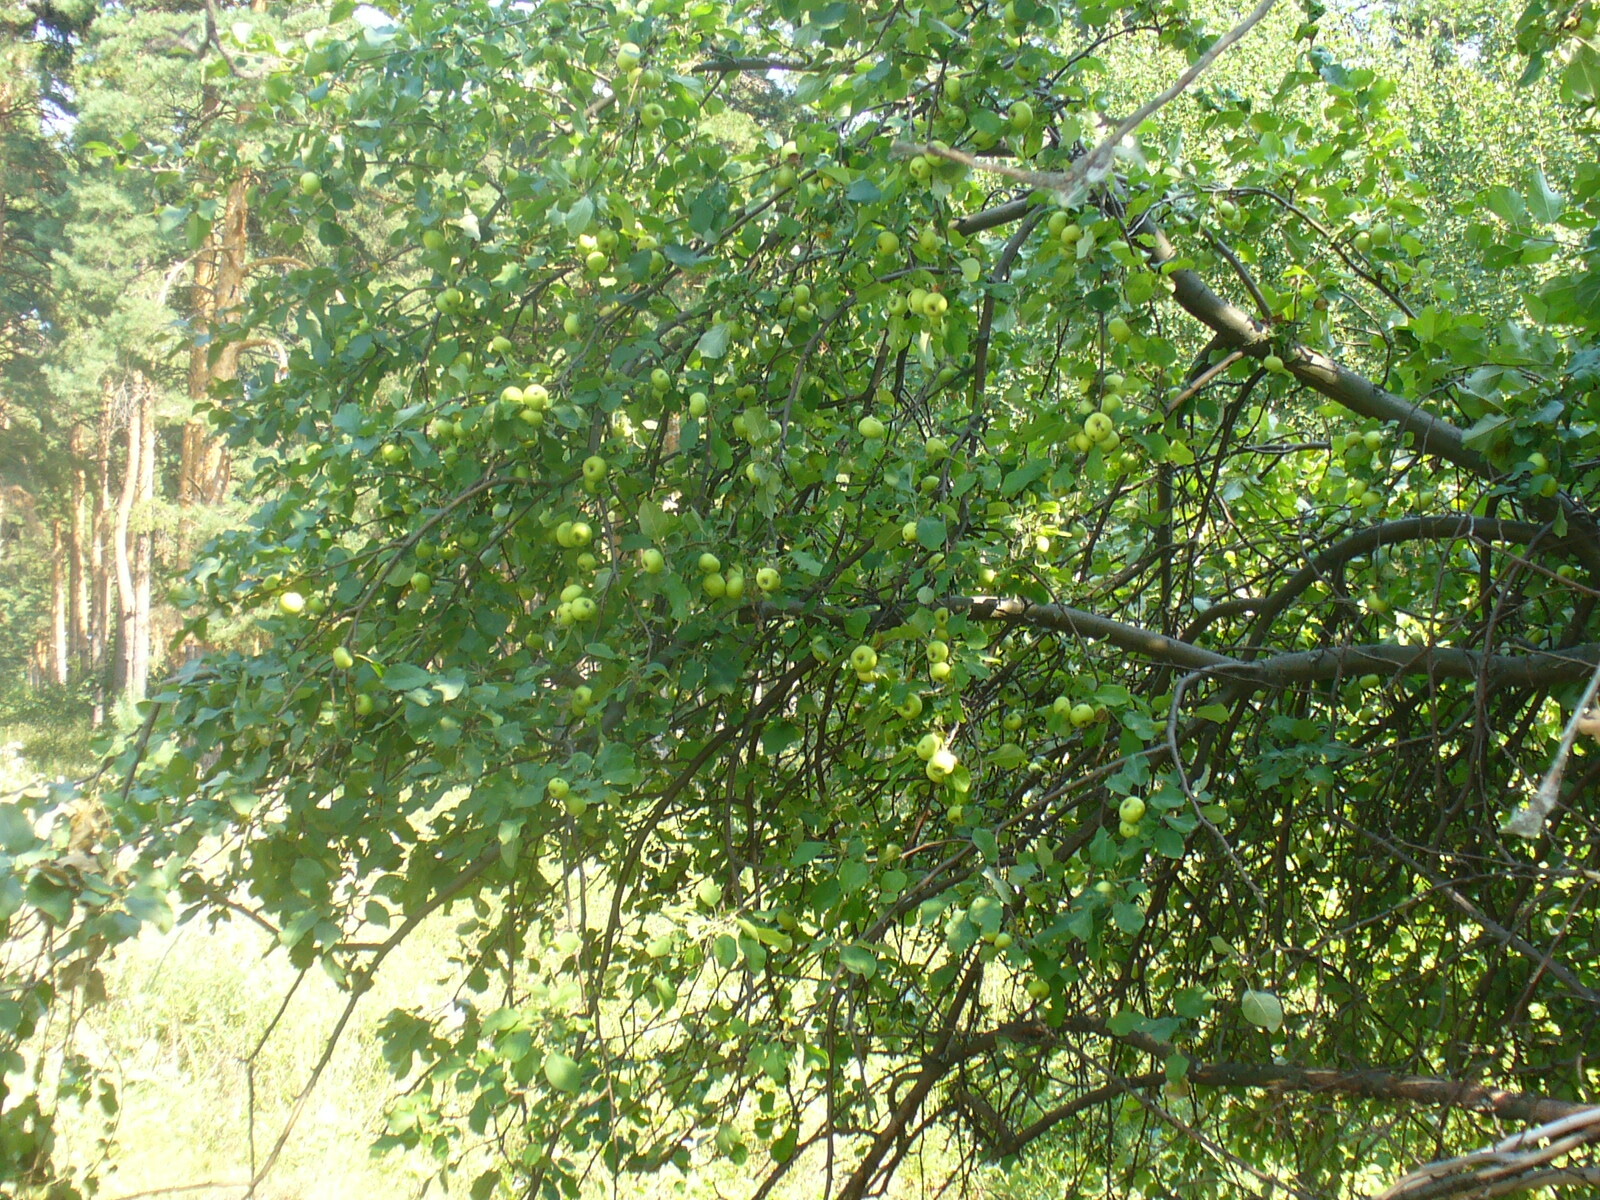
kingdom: Plantae
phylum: Tracheophyta
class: Magnoliopsida
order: Rosales
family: Rosaceae
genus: Malus
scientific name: Malus domestica
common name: Apple
